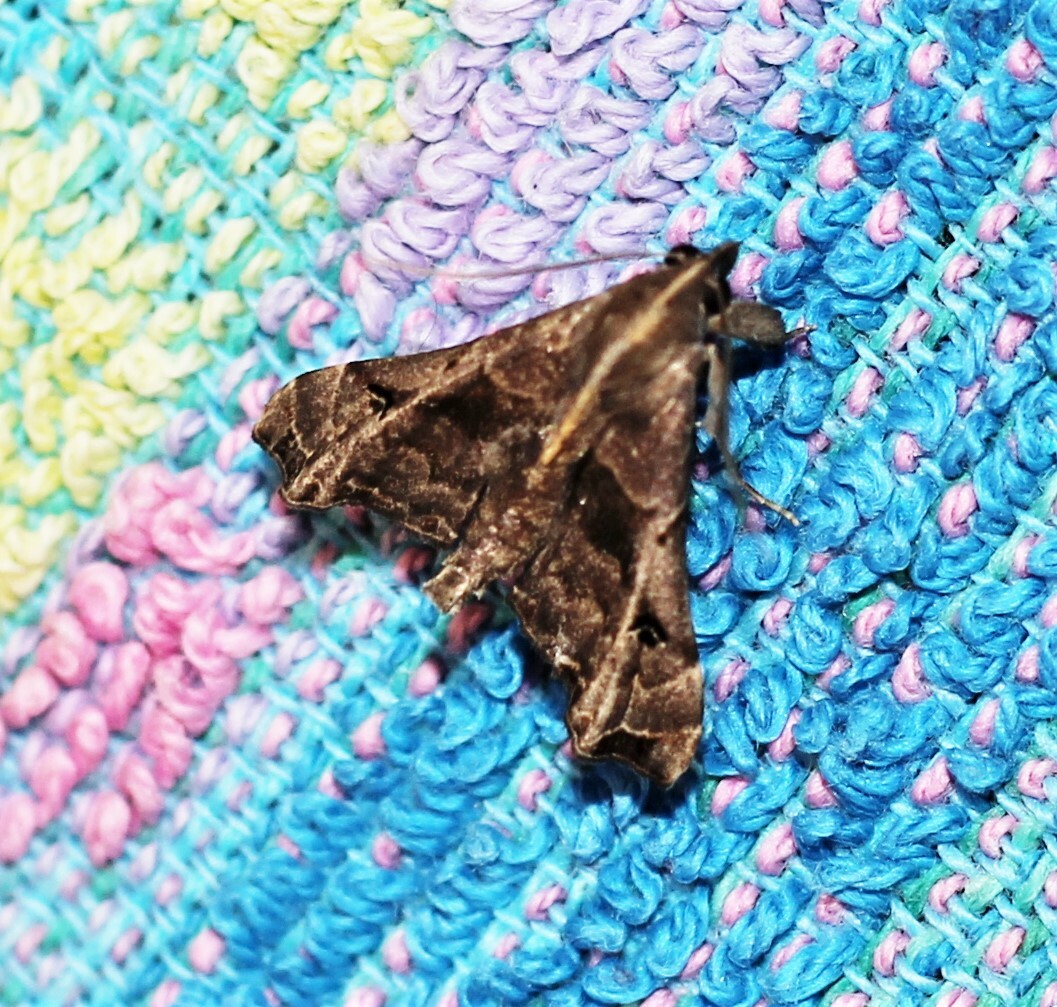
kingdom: Animalia
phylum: Arthropoda
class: Insecta
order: Lepidoptera
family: Erebidae
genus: Palthis
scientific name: Palthis asopialis
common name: Faint-spotted palthis moth
